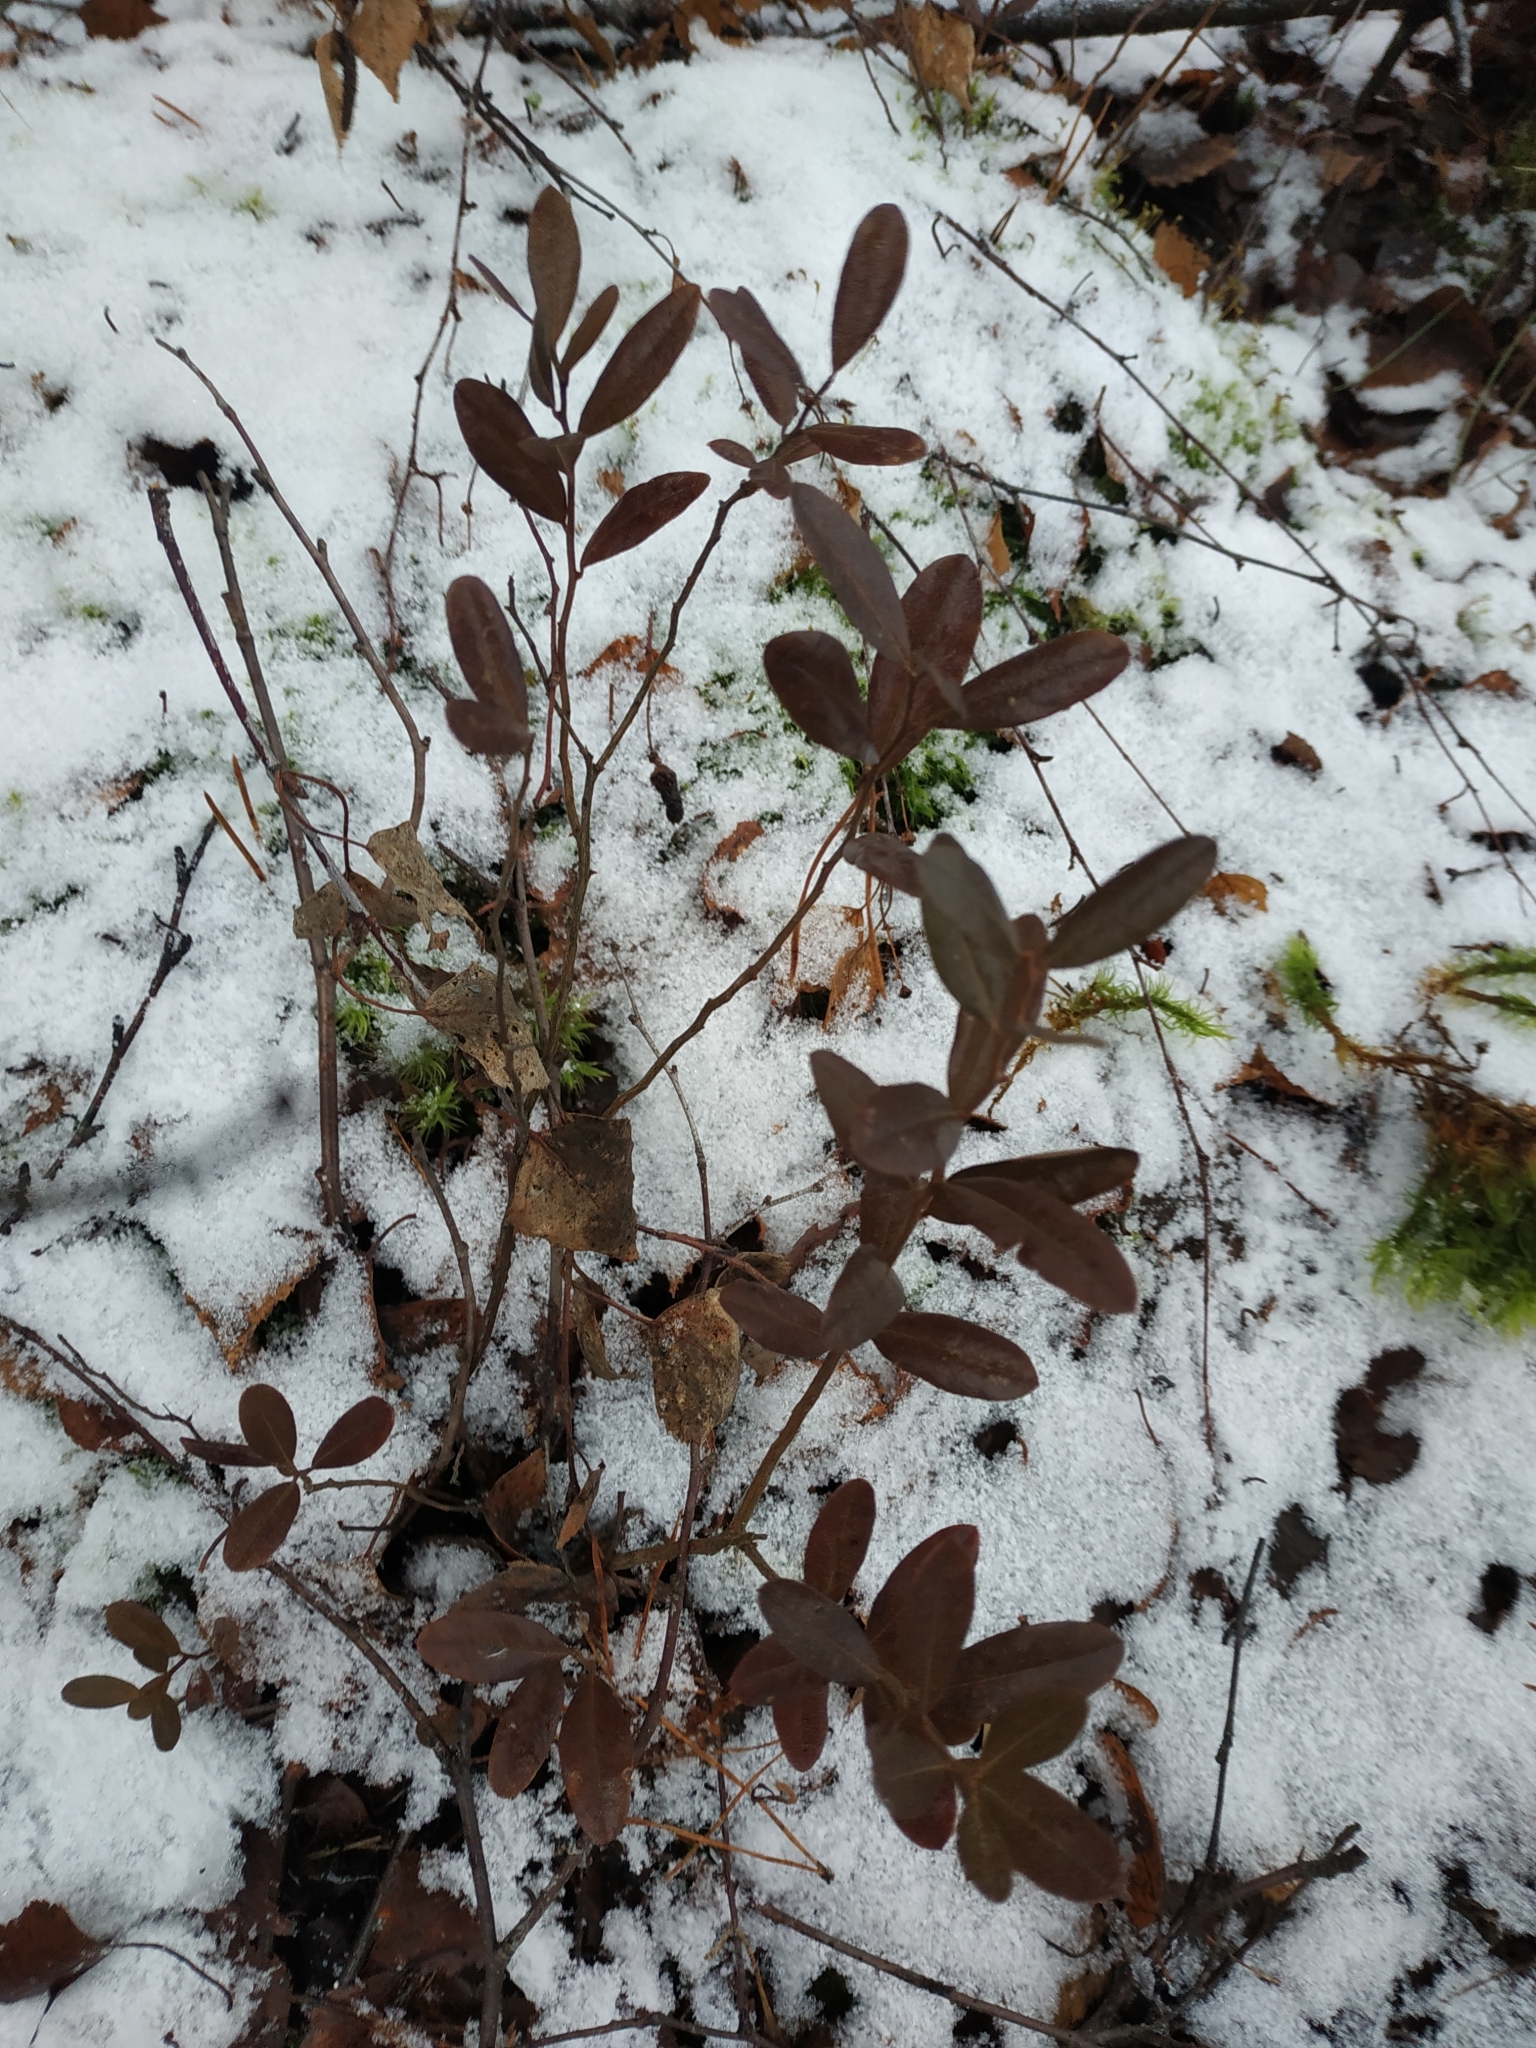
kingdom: Plantae
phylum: Tracheophyta
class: Magnoliopsida
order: Ericales
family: Ericaceae
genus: Chamaedaphne
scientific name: Chamaedaphne calyculata
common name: Leatherleaf
